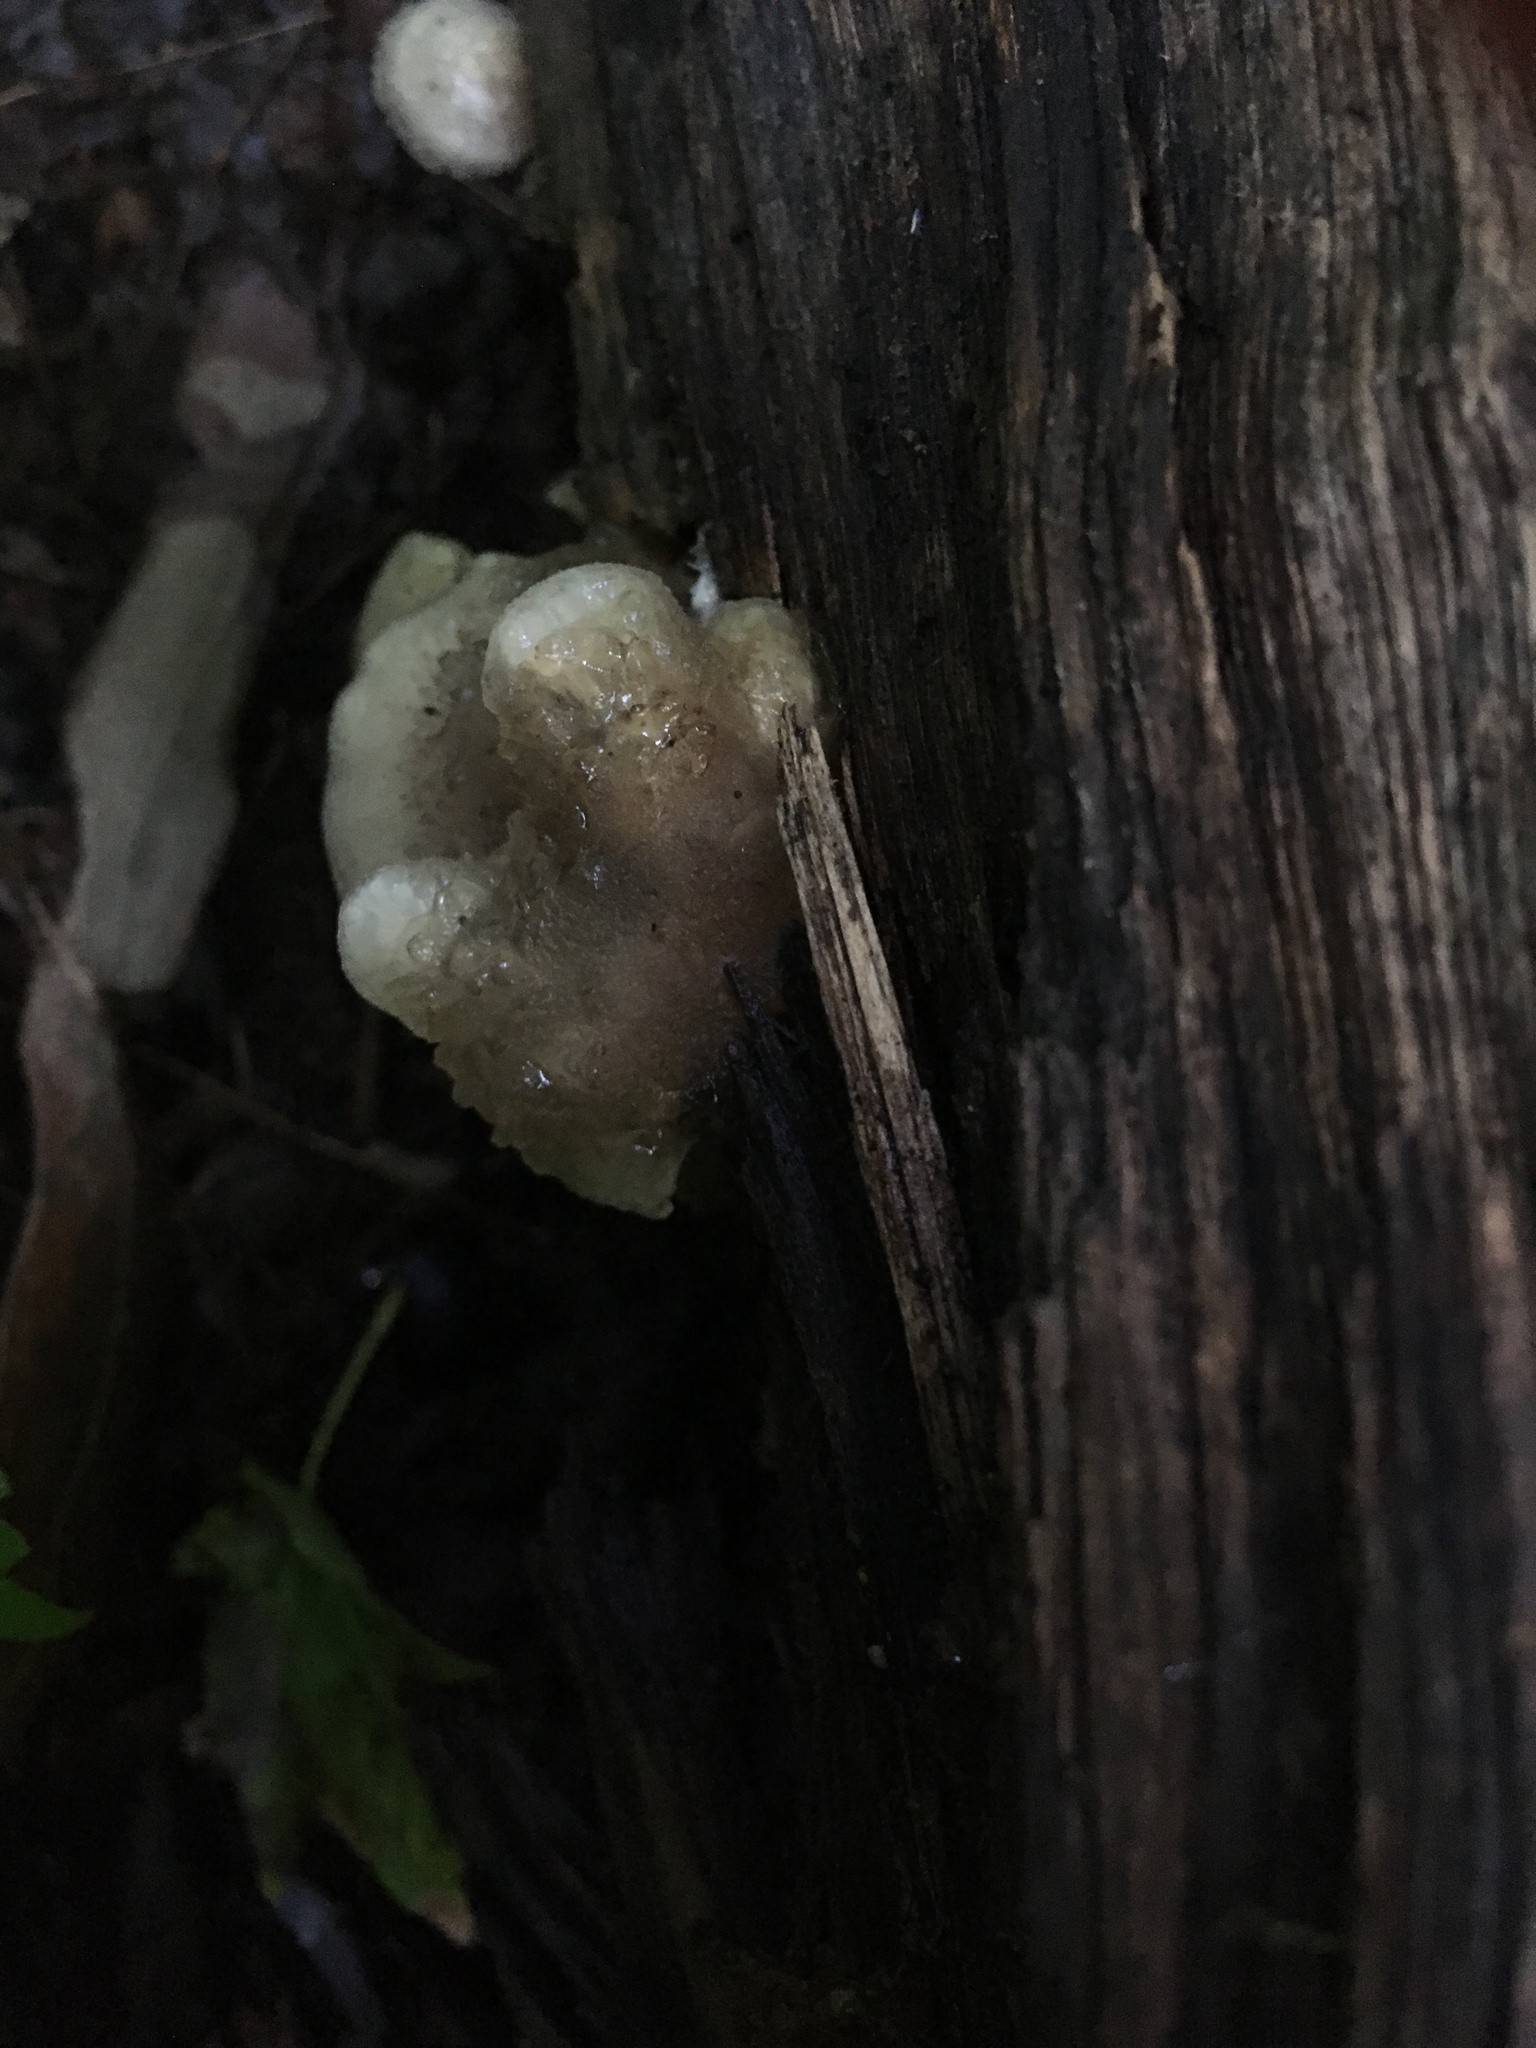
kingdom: Fungi
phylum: Basidiomycota
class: Agaricomycetes
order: Agaricales
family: Pleurotaceae
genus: Hohenbuehelia
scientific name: Hohenbuehelia mastrucata
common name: Woolly oyster
